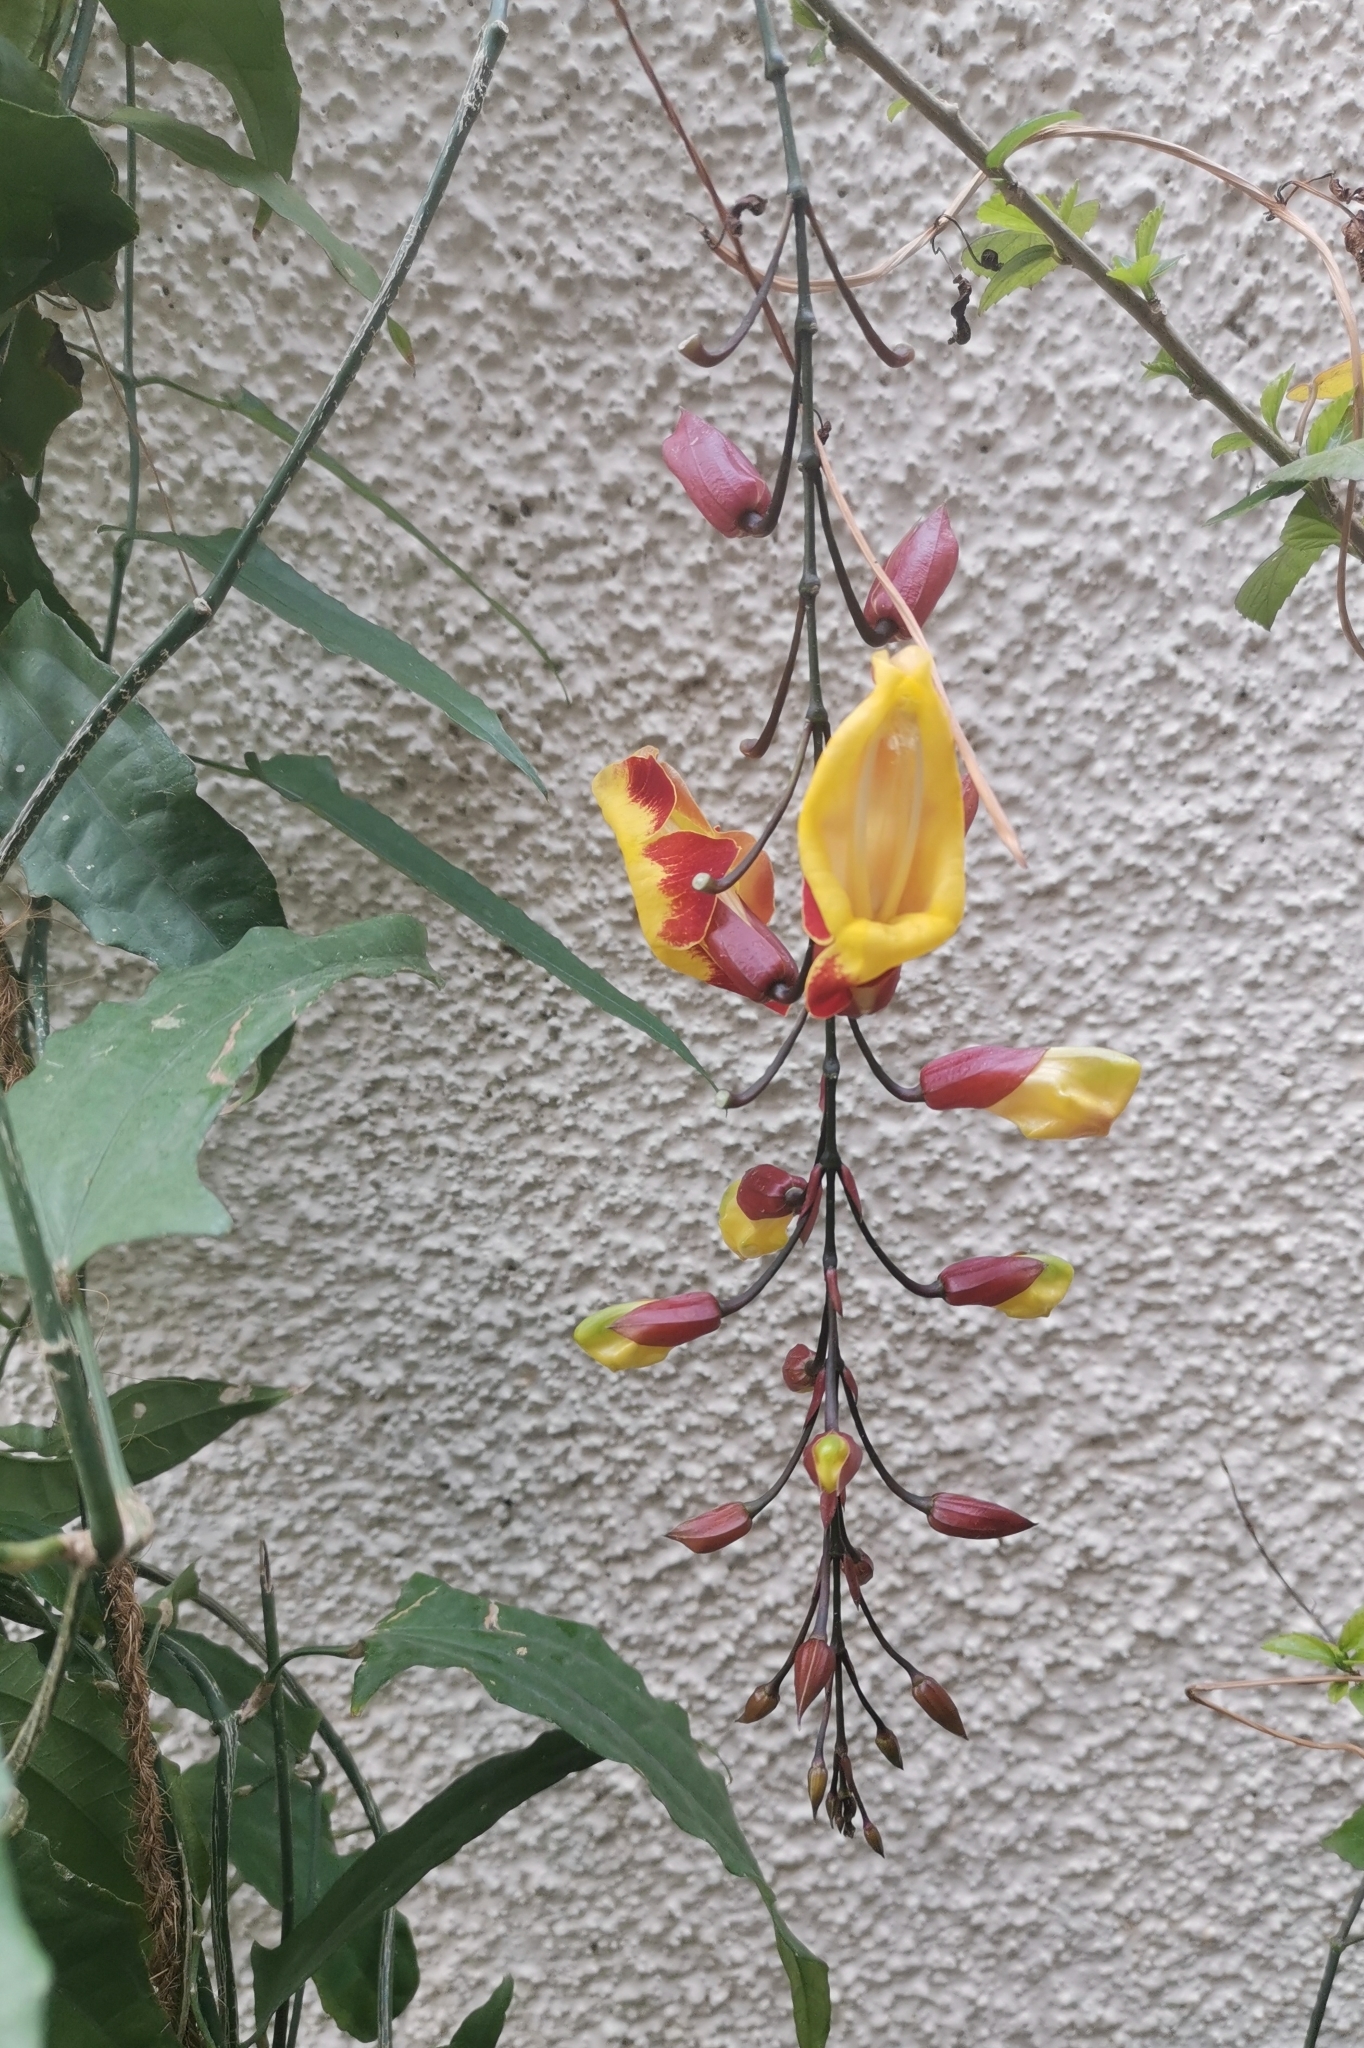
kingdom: Plantae
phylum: Tracheophyta
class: Magnoliopsida
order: Lamiales
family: Acanthaceae
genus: Thunbergia
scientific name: Thunbergia mysorensis
